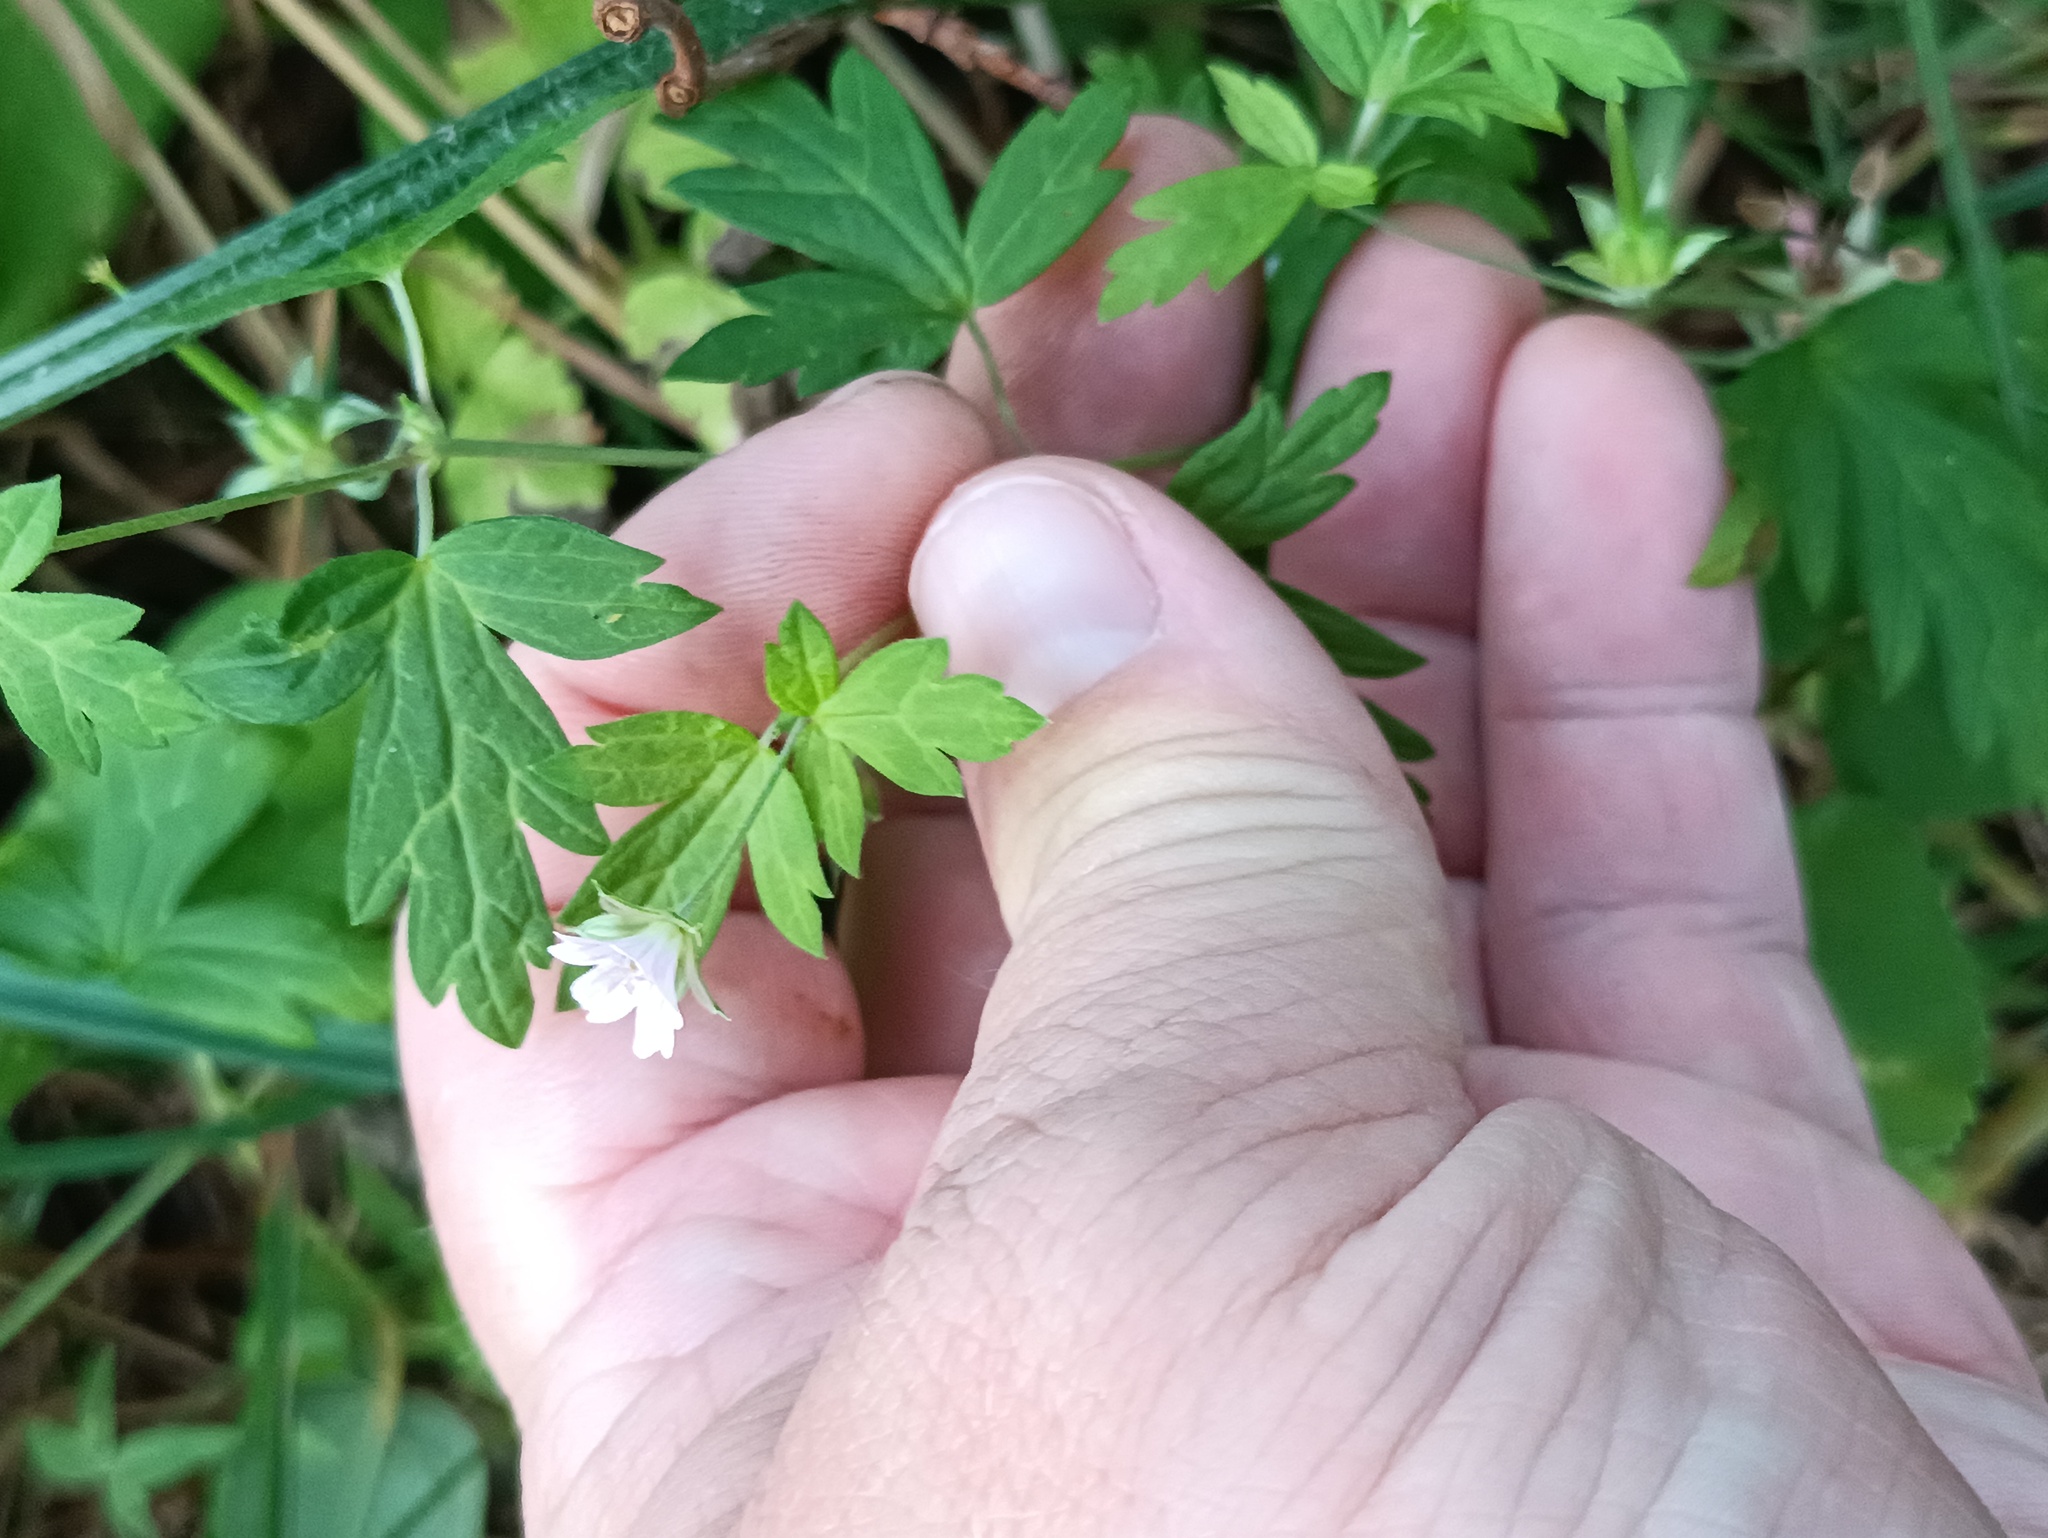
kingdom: Plantae
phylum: Tracheophyta
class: Magnoliopsida
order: Geraniales
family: Geraniaceae
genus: Geranium
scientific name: Geranium sibiricum
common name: Siberian crane's-bill
